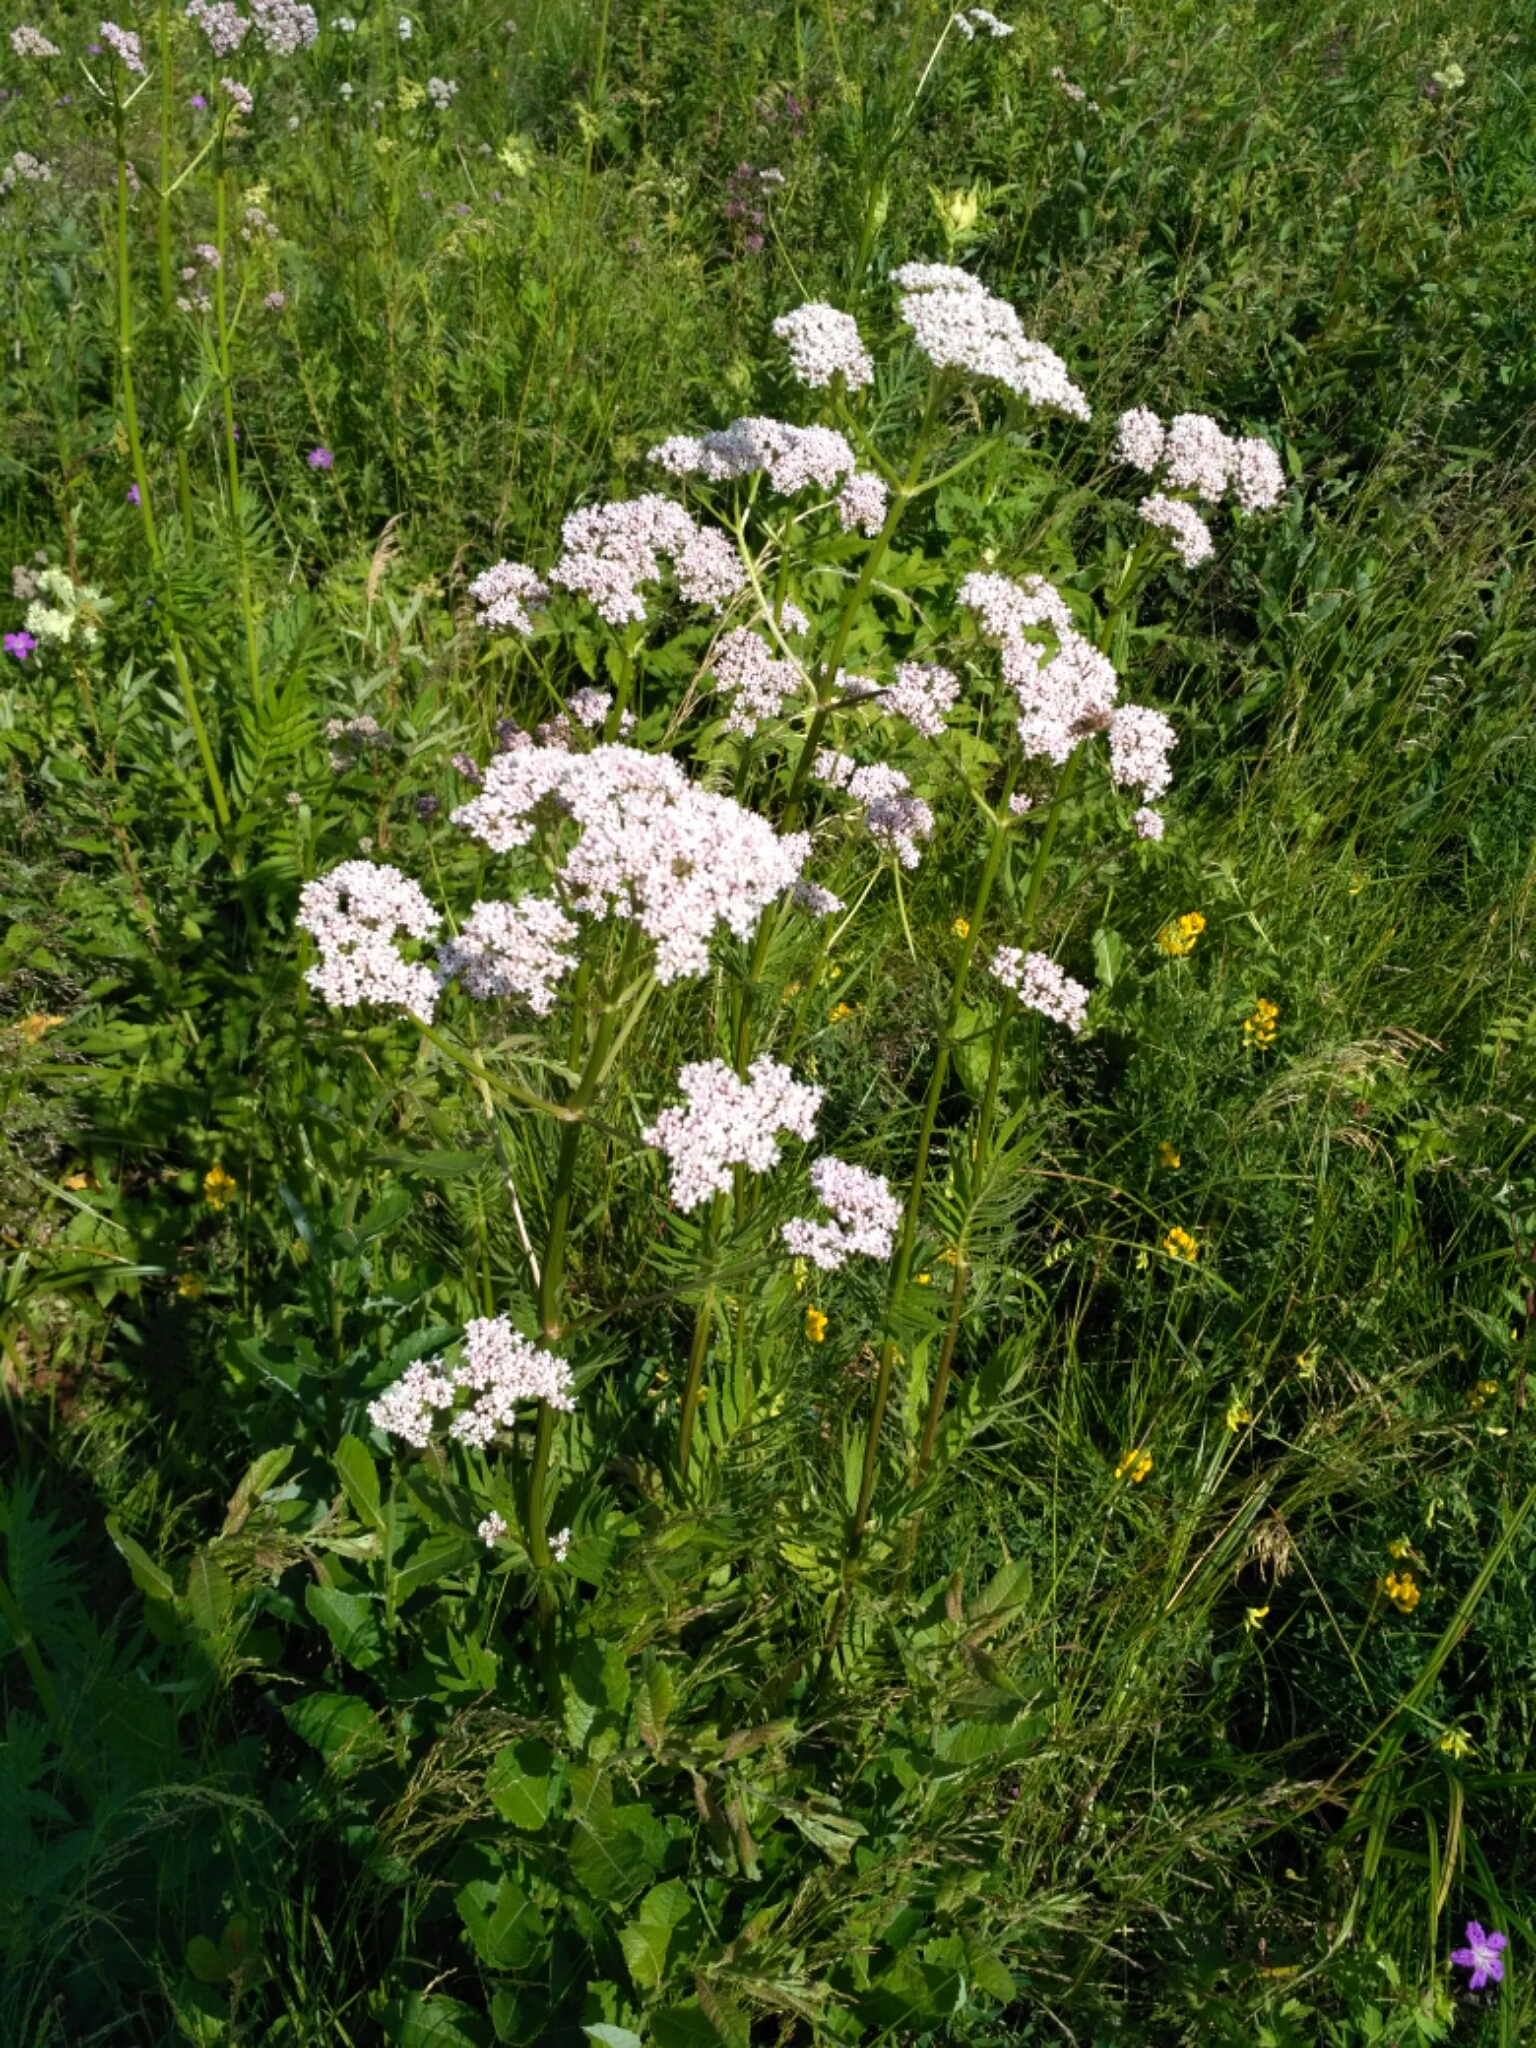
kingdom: Plantae
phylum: Tracheophyta
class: Magnoliopsida
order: Dipsacales
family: Caprifoliaceae
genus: Valeriana
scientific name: Valeriana officinalis
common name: Common valerian
